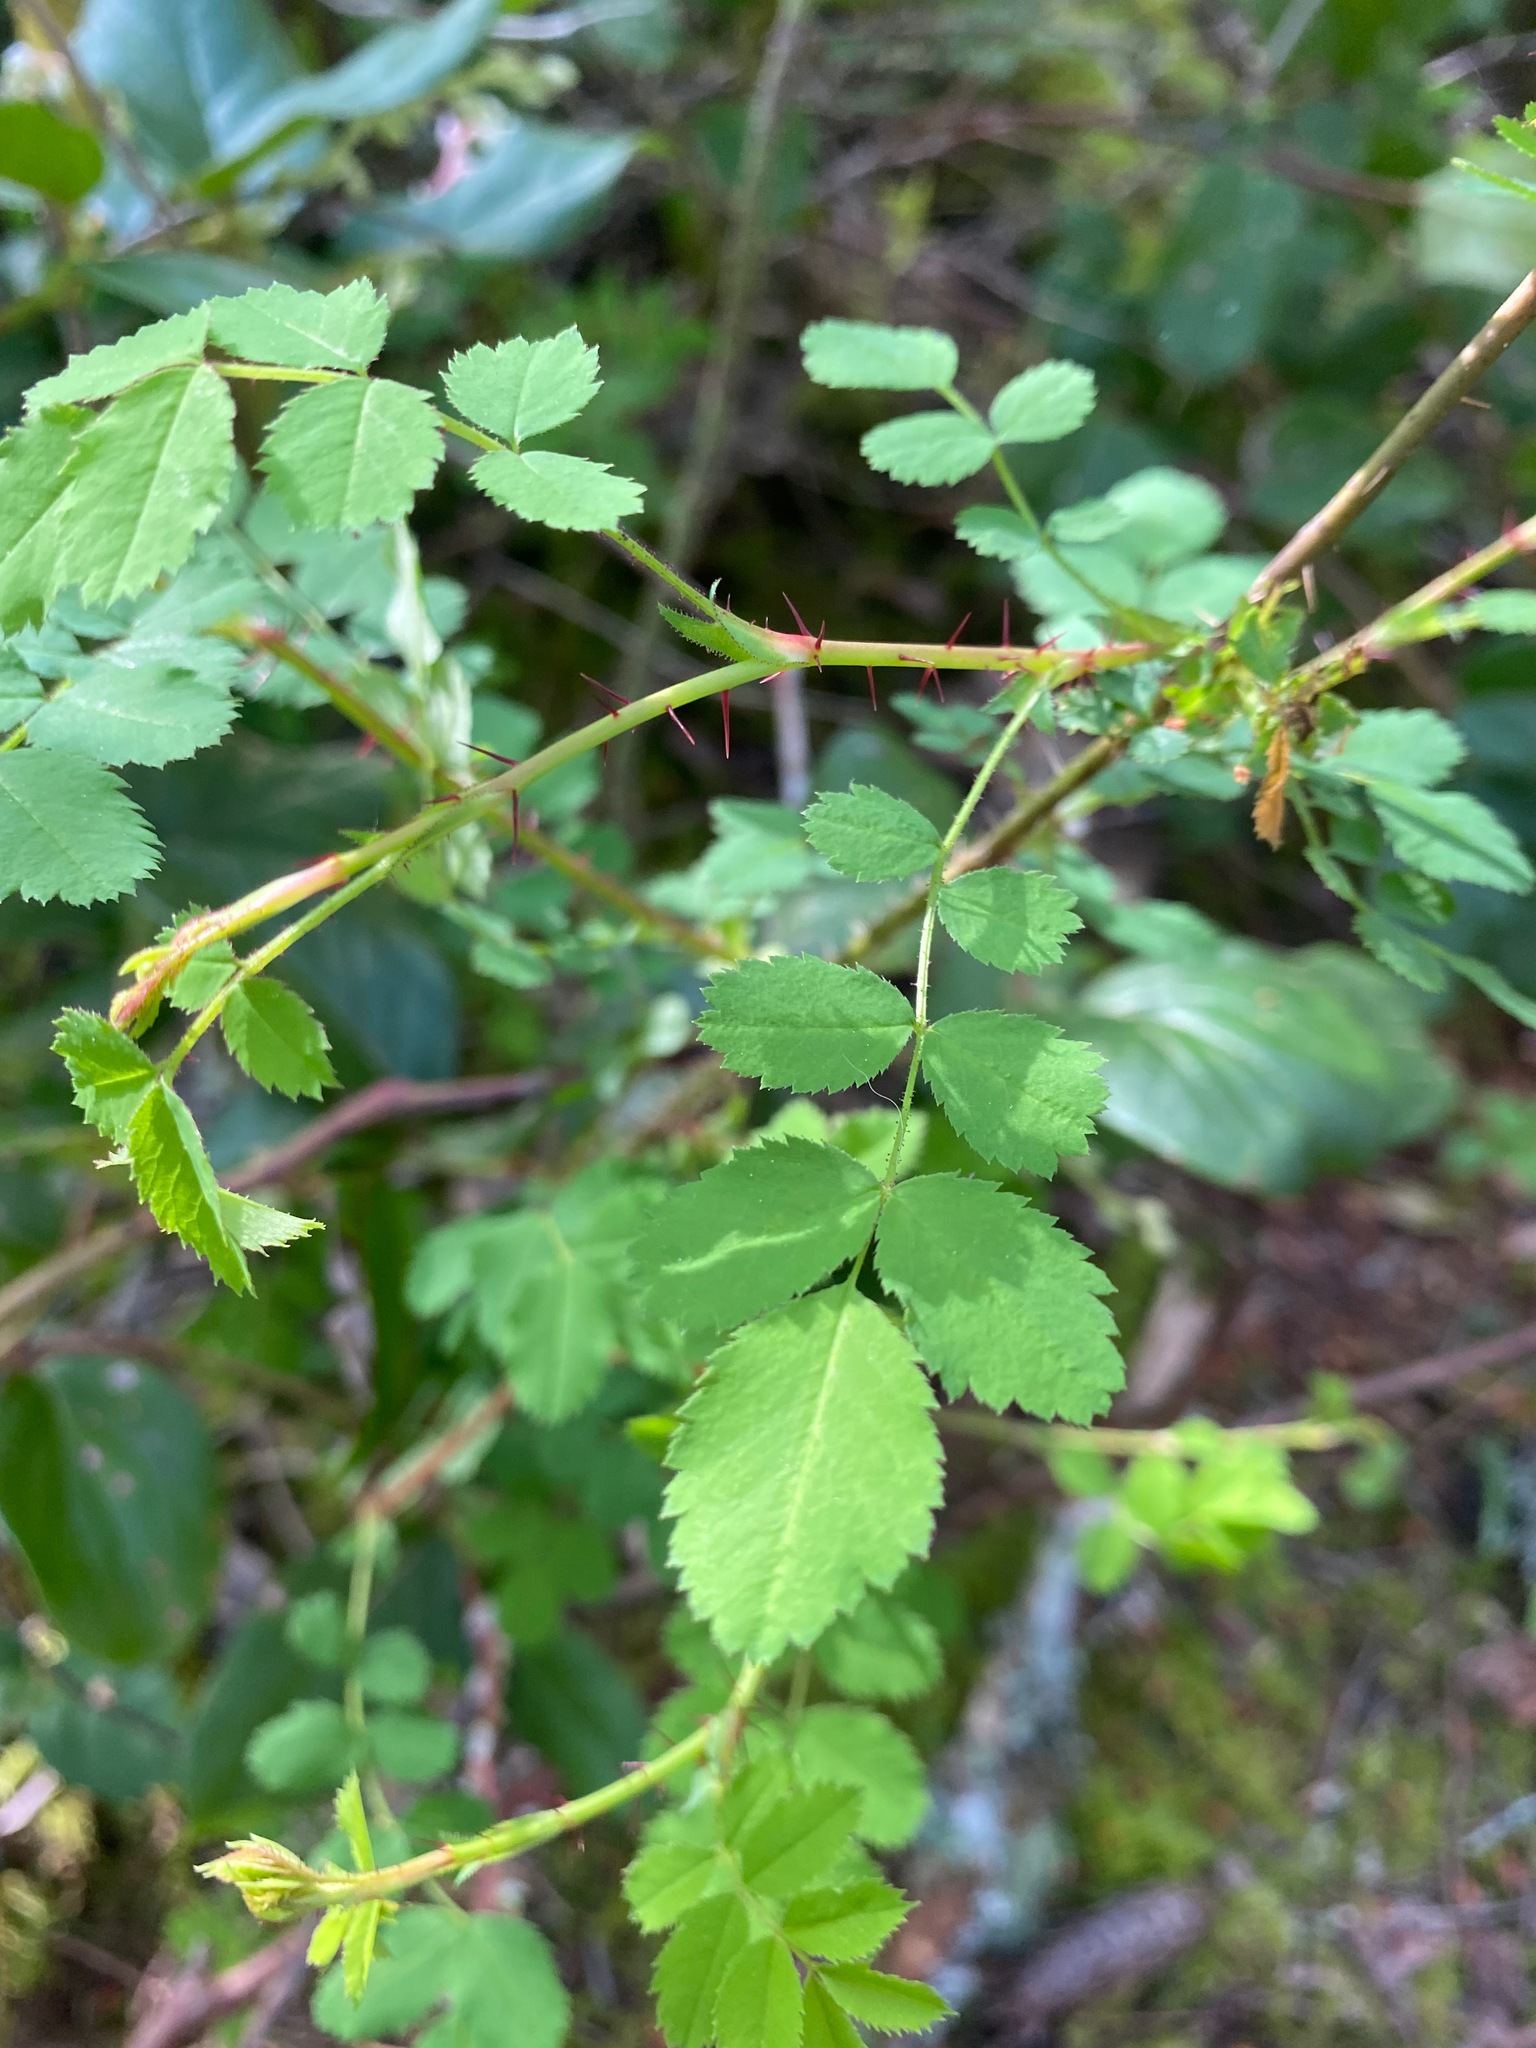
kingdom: Plantae
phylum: Tracheophyta
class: Magnoliopsida
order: Rosales
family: Rosaceae
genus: Rosa
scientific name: Rosa gymnocarpa
